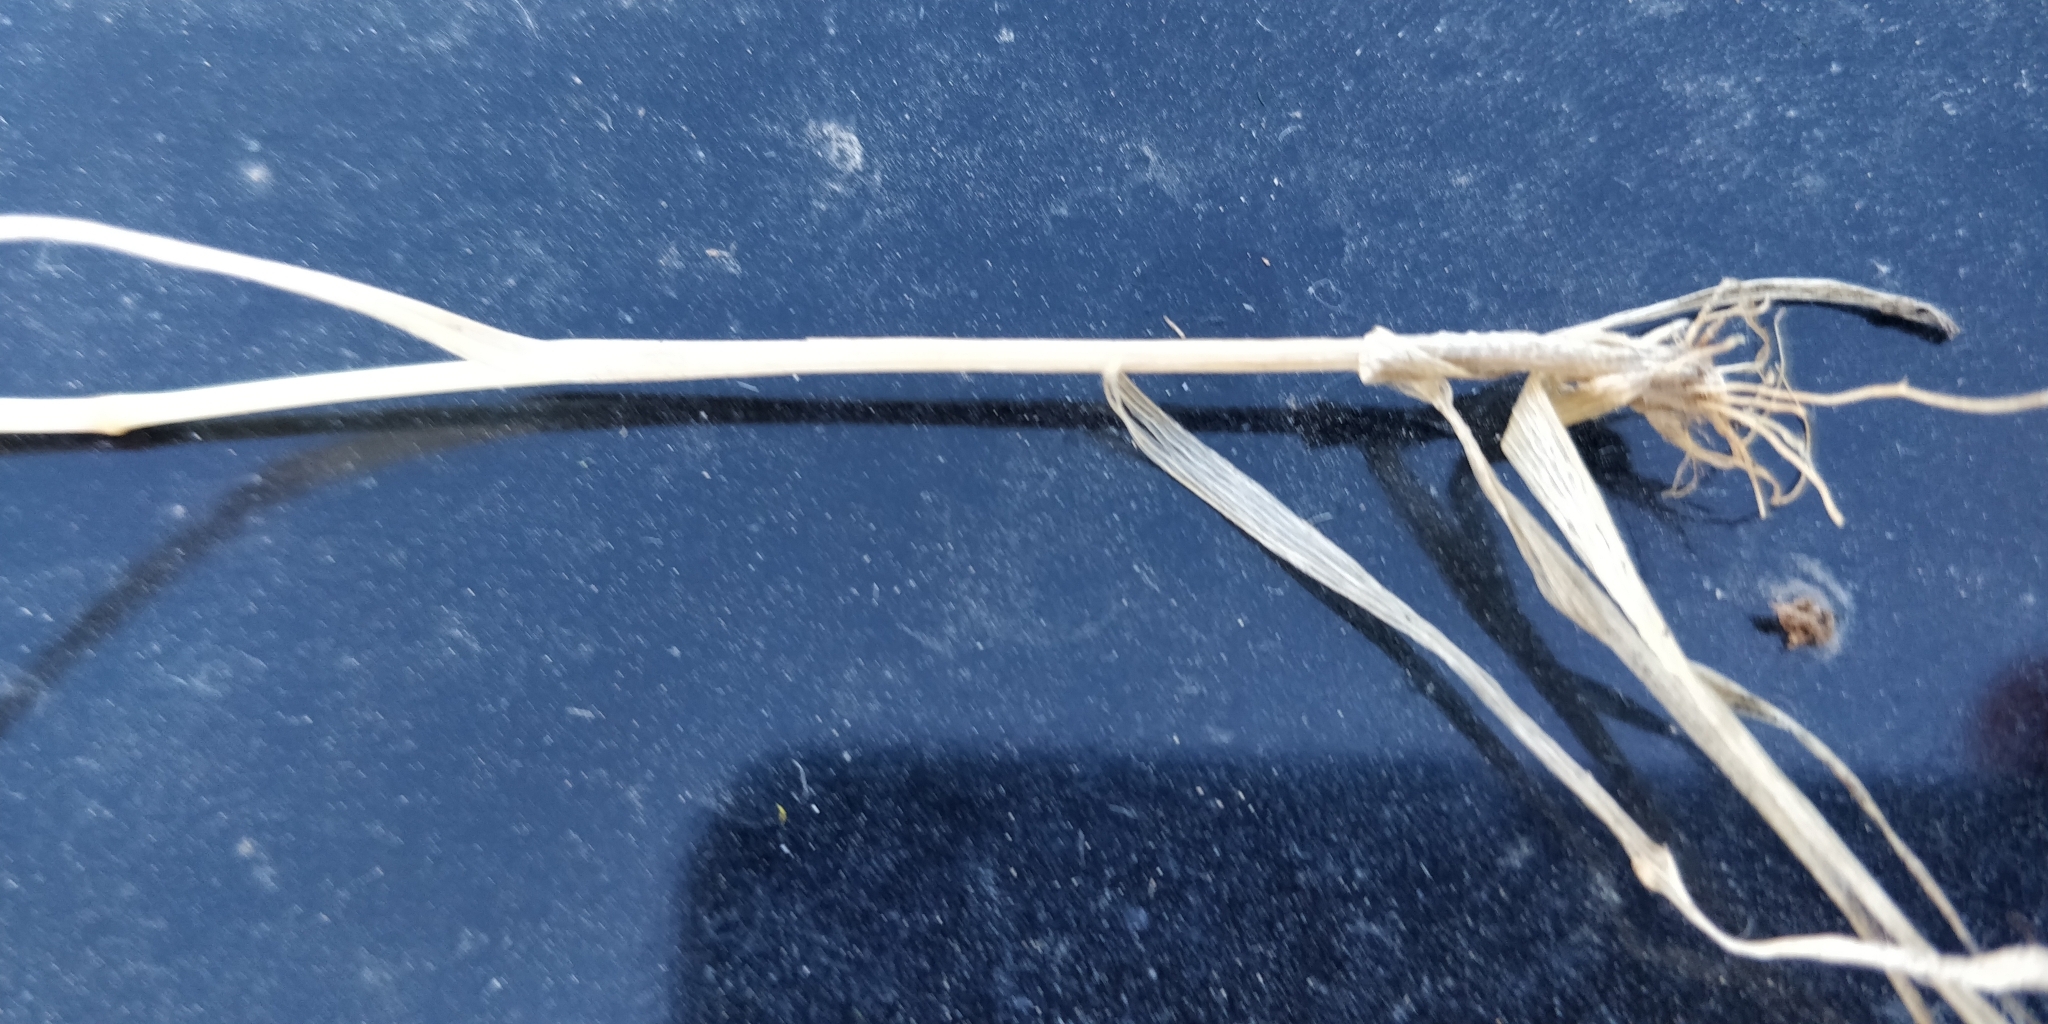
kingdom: Plantae
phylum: Tracheophyta
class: Liliopsida
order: Poales
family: Poaceae
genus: Sphenopholis
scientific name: Sphenopholis obtusata
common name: Prairie grass
